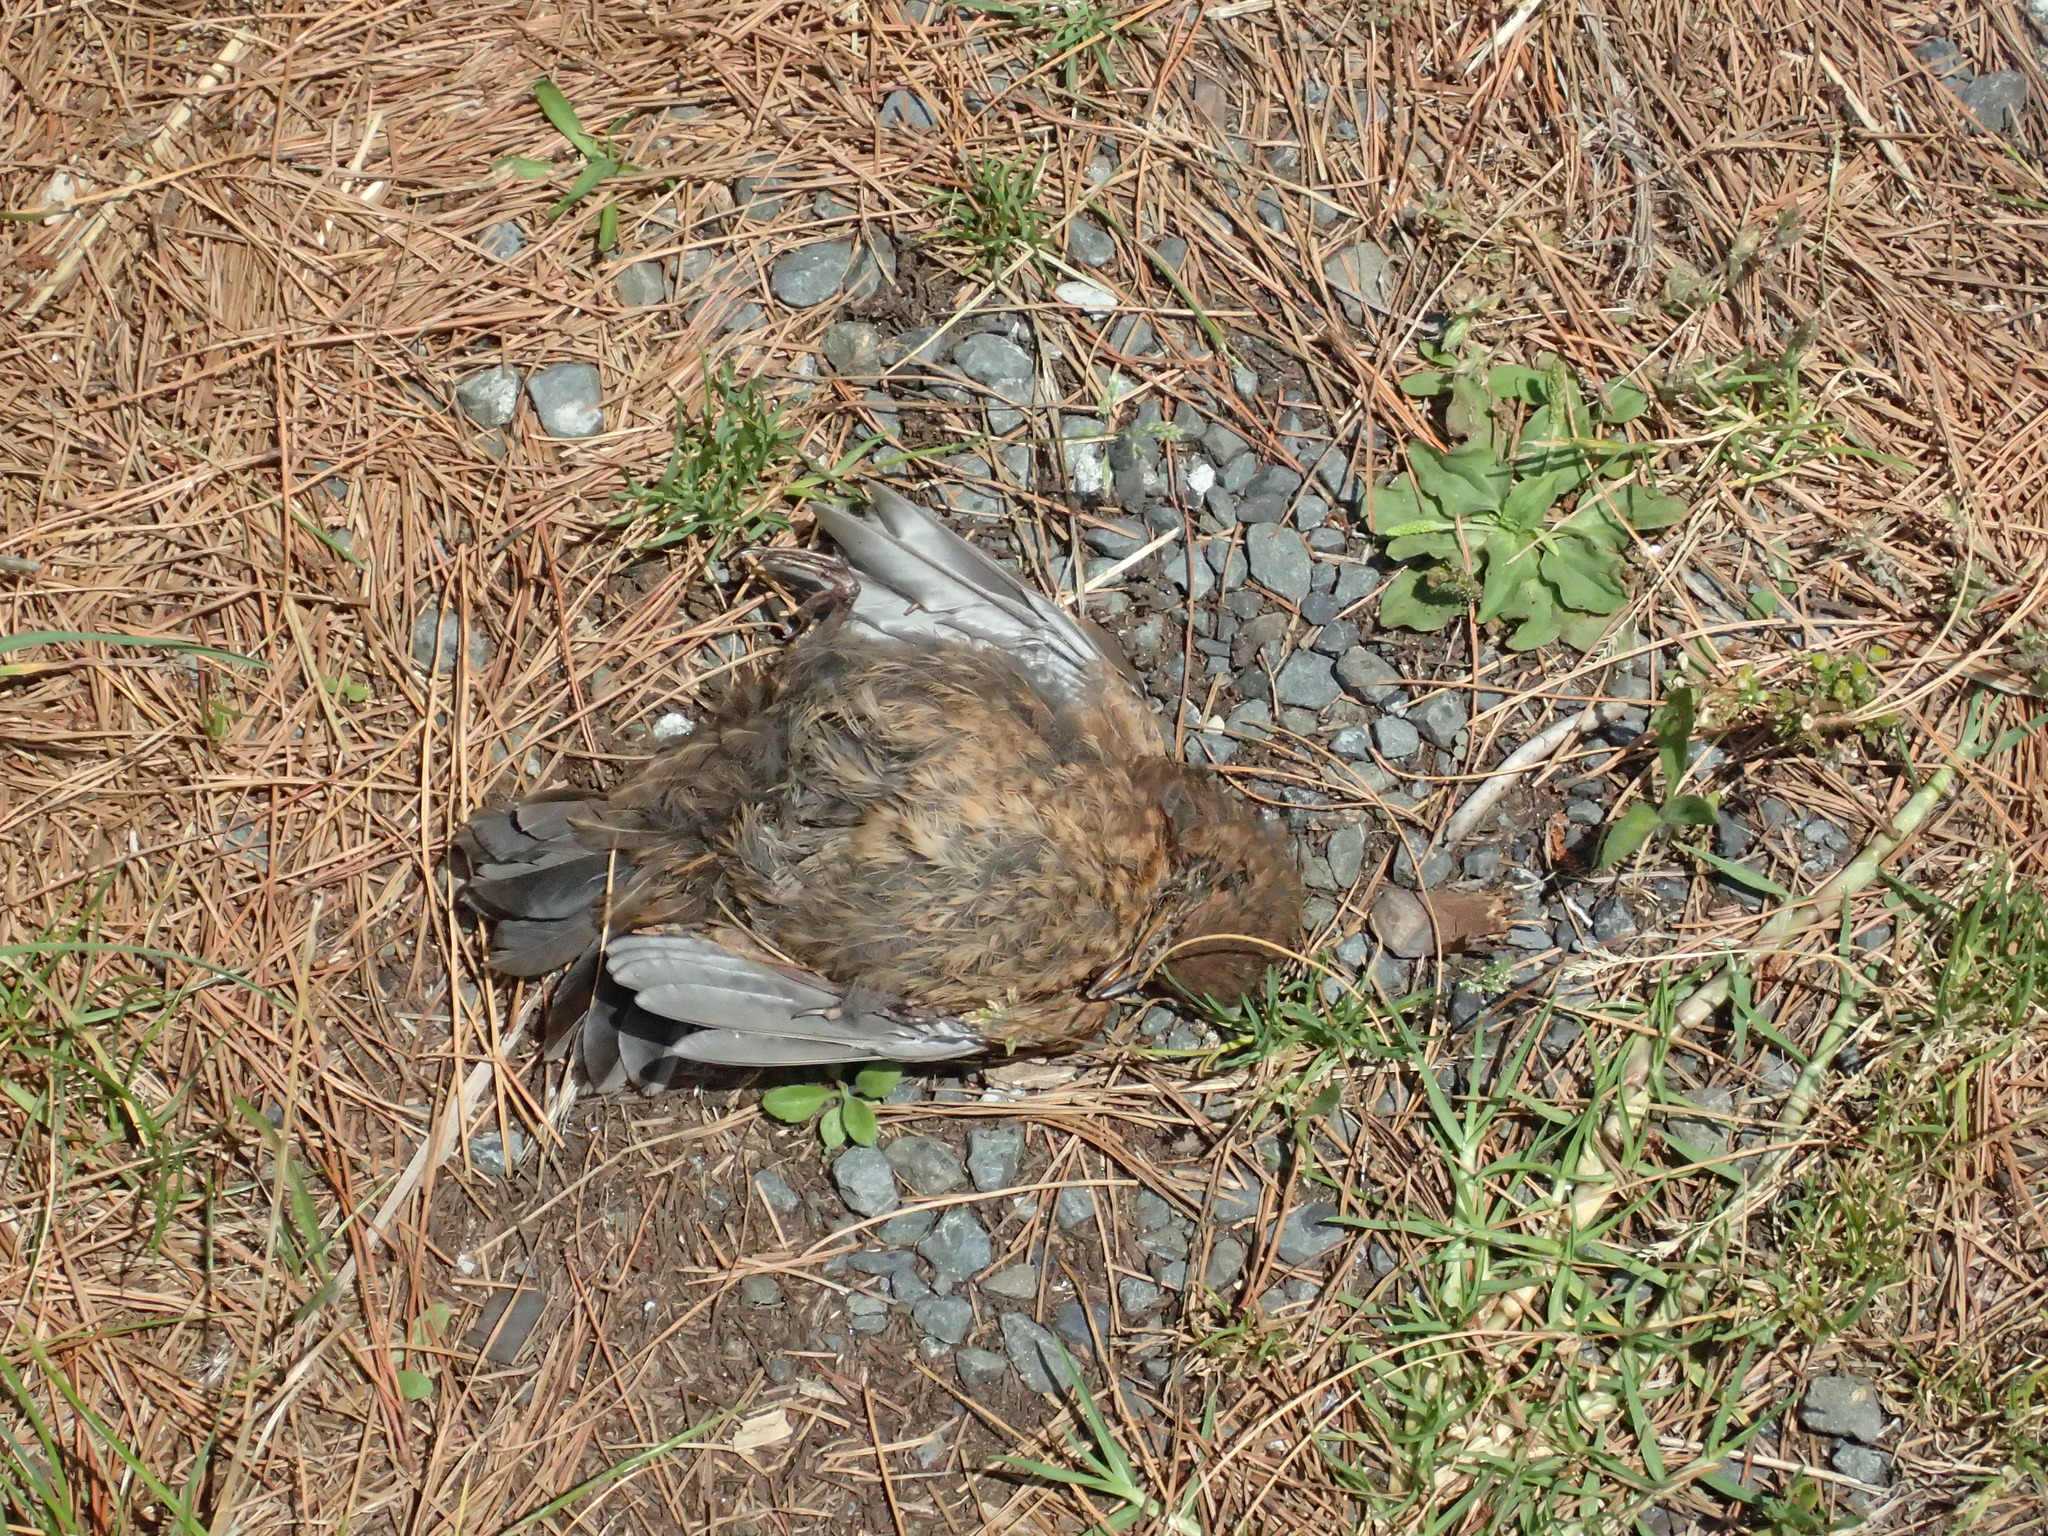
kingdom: Animalia
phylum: Chordata
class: Aves
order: Passeriformes
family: Turdidae
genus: Turdus
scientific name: Turdus merula
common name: Common blackbird
